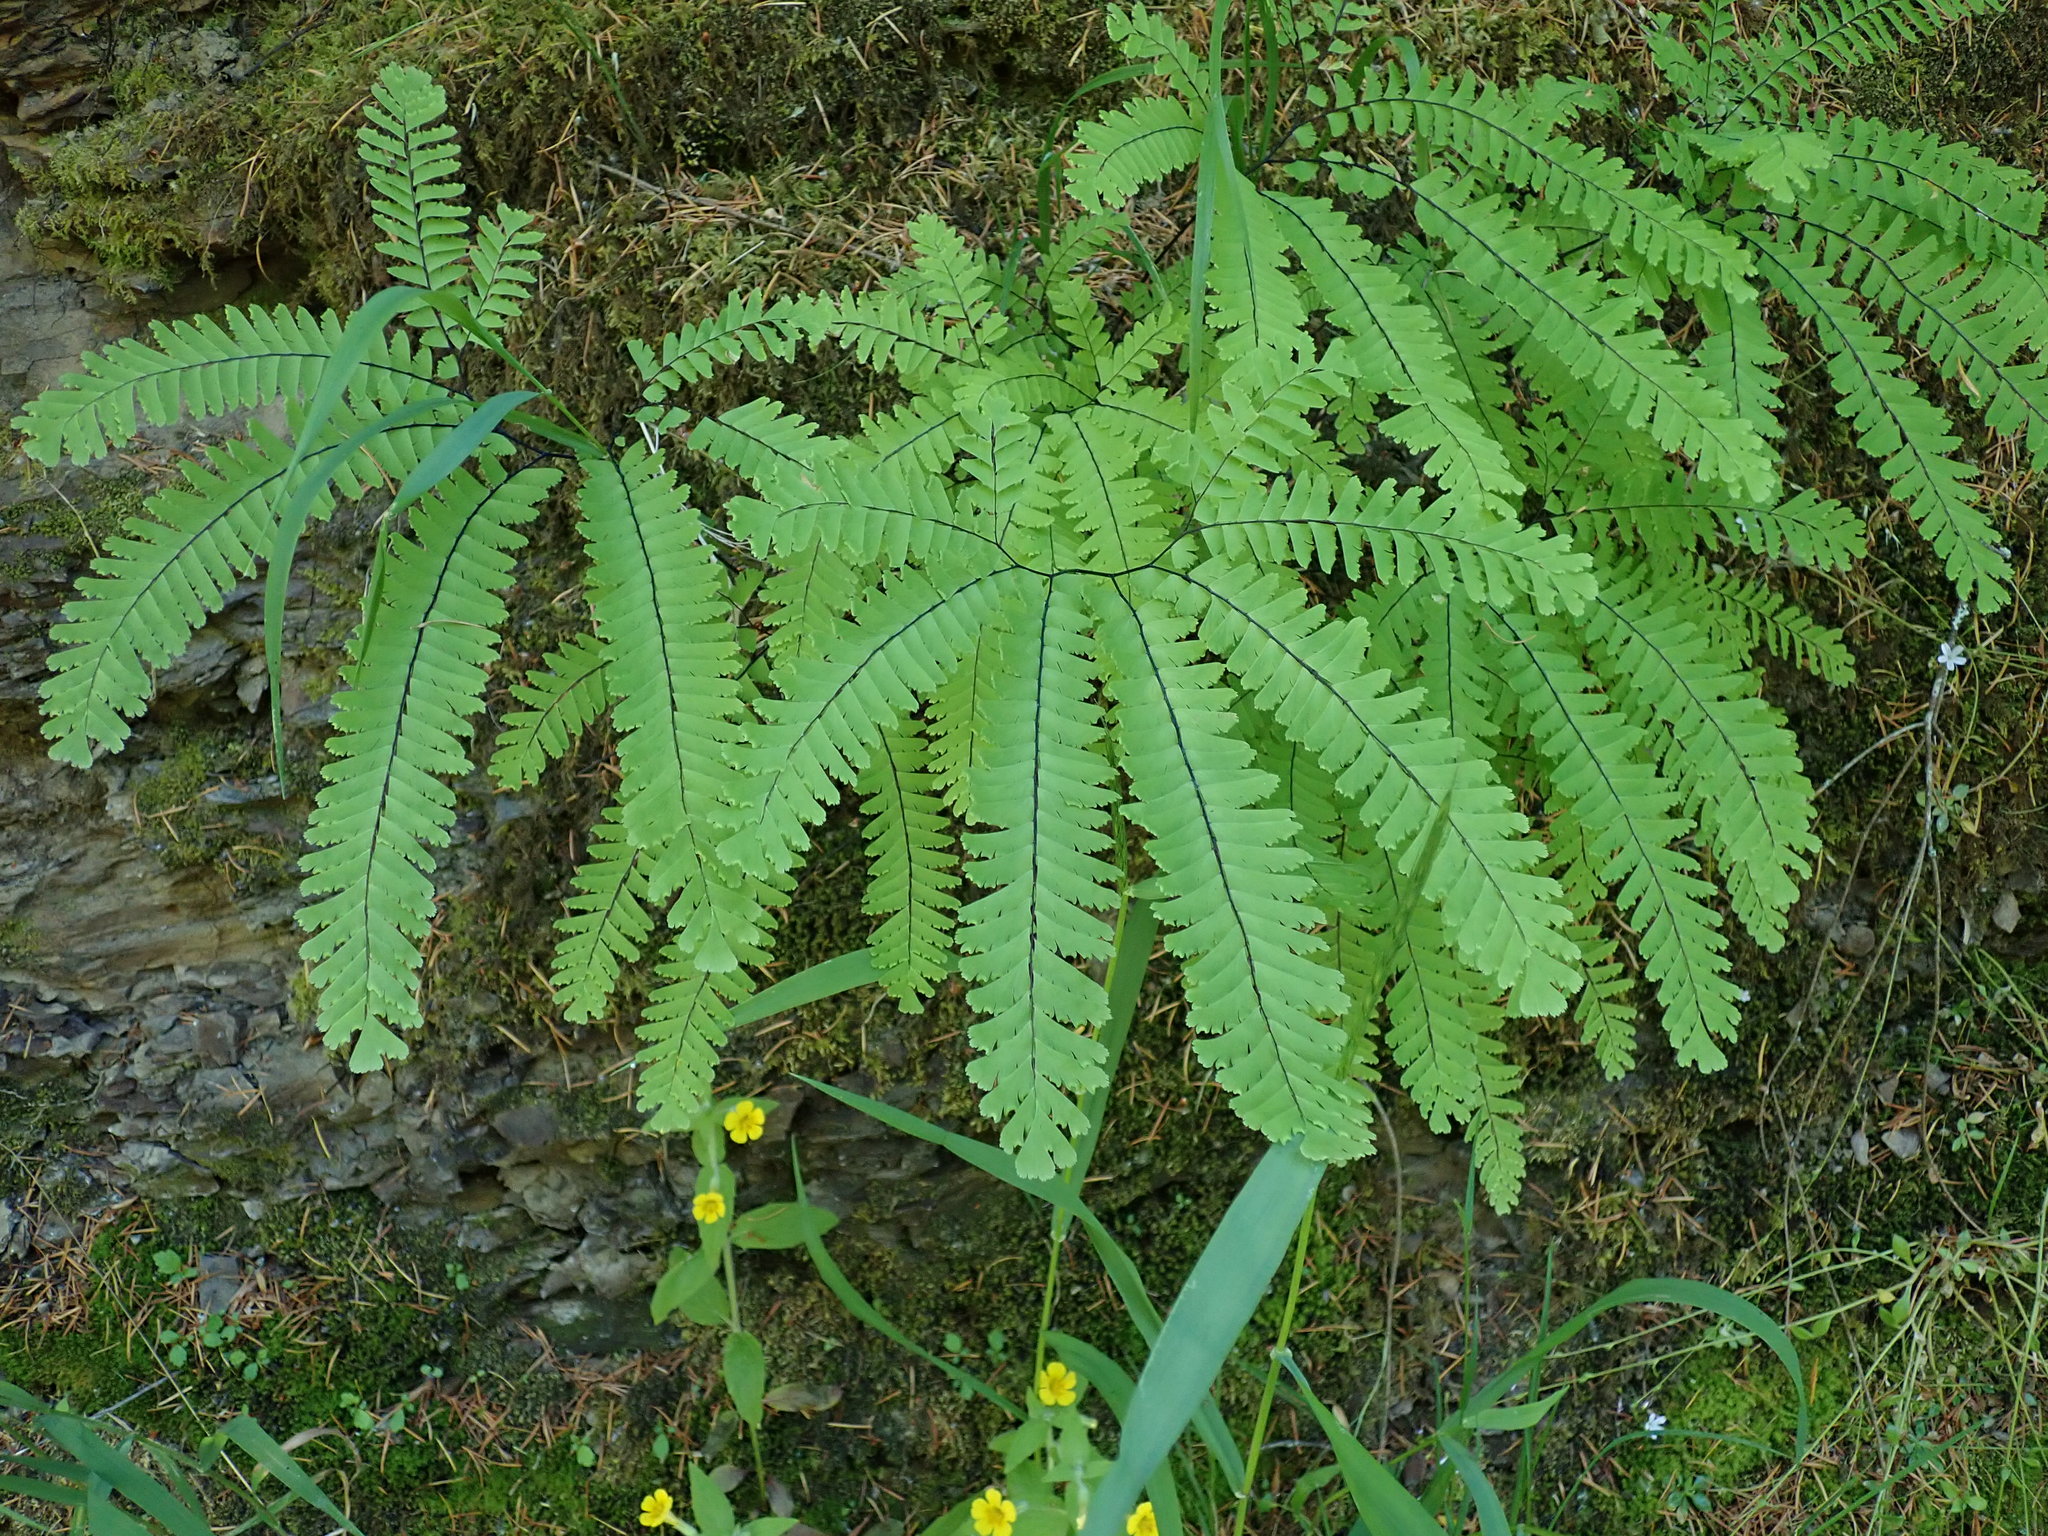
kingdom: Plantae
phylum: Tracheophyta
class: Polypodiopsida
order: Polypodiales
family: Pteridaceae
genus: Adiantum
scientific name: Adiantum aleuticum
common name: Aleutian maidenhair fern
